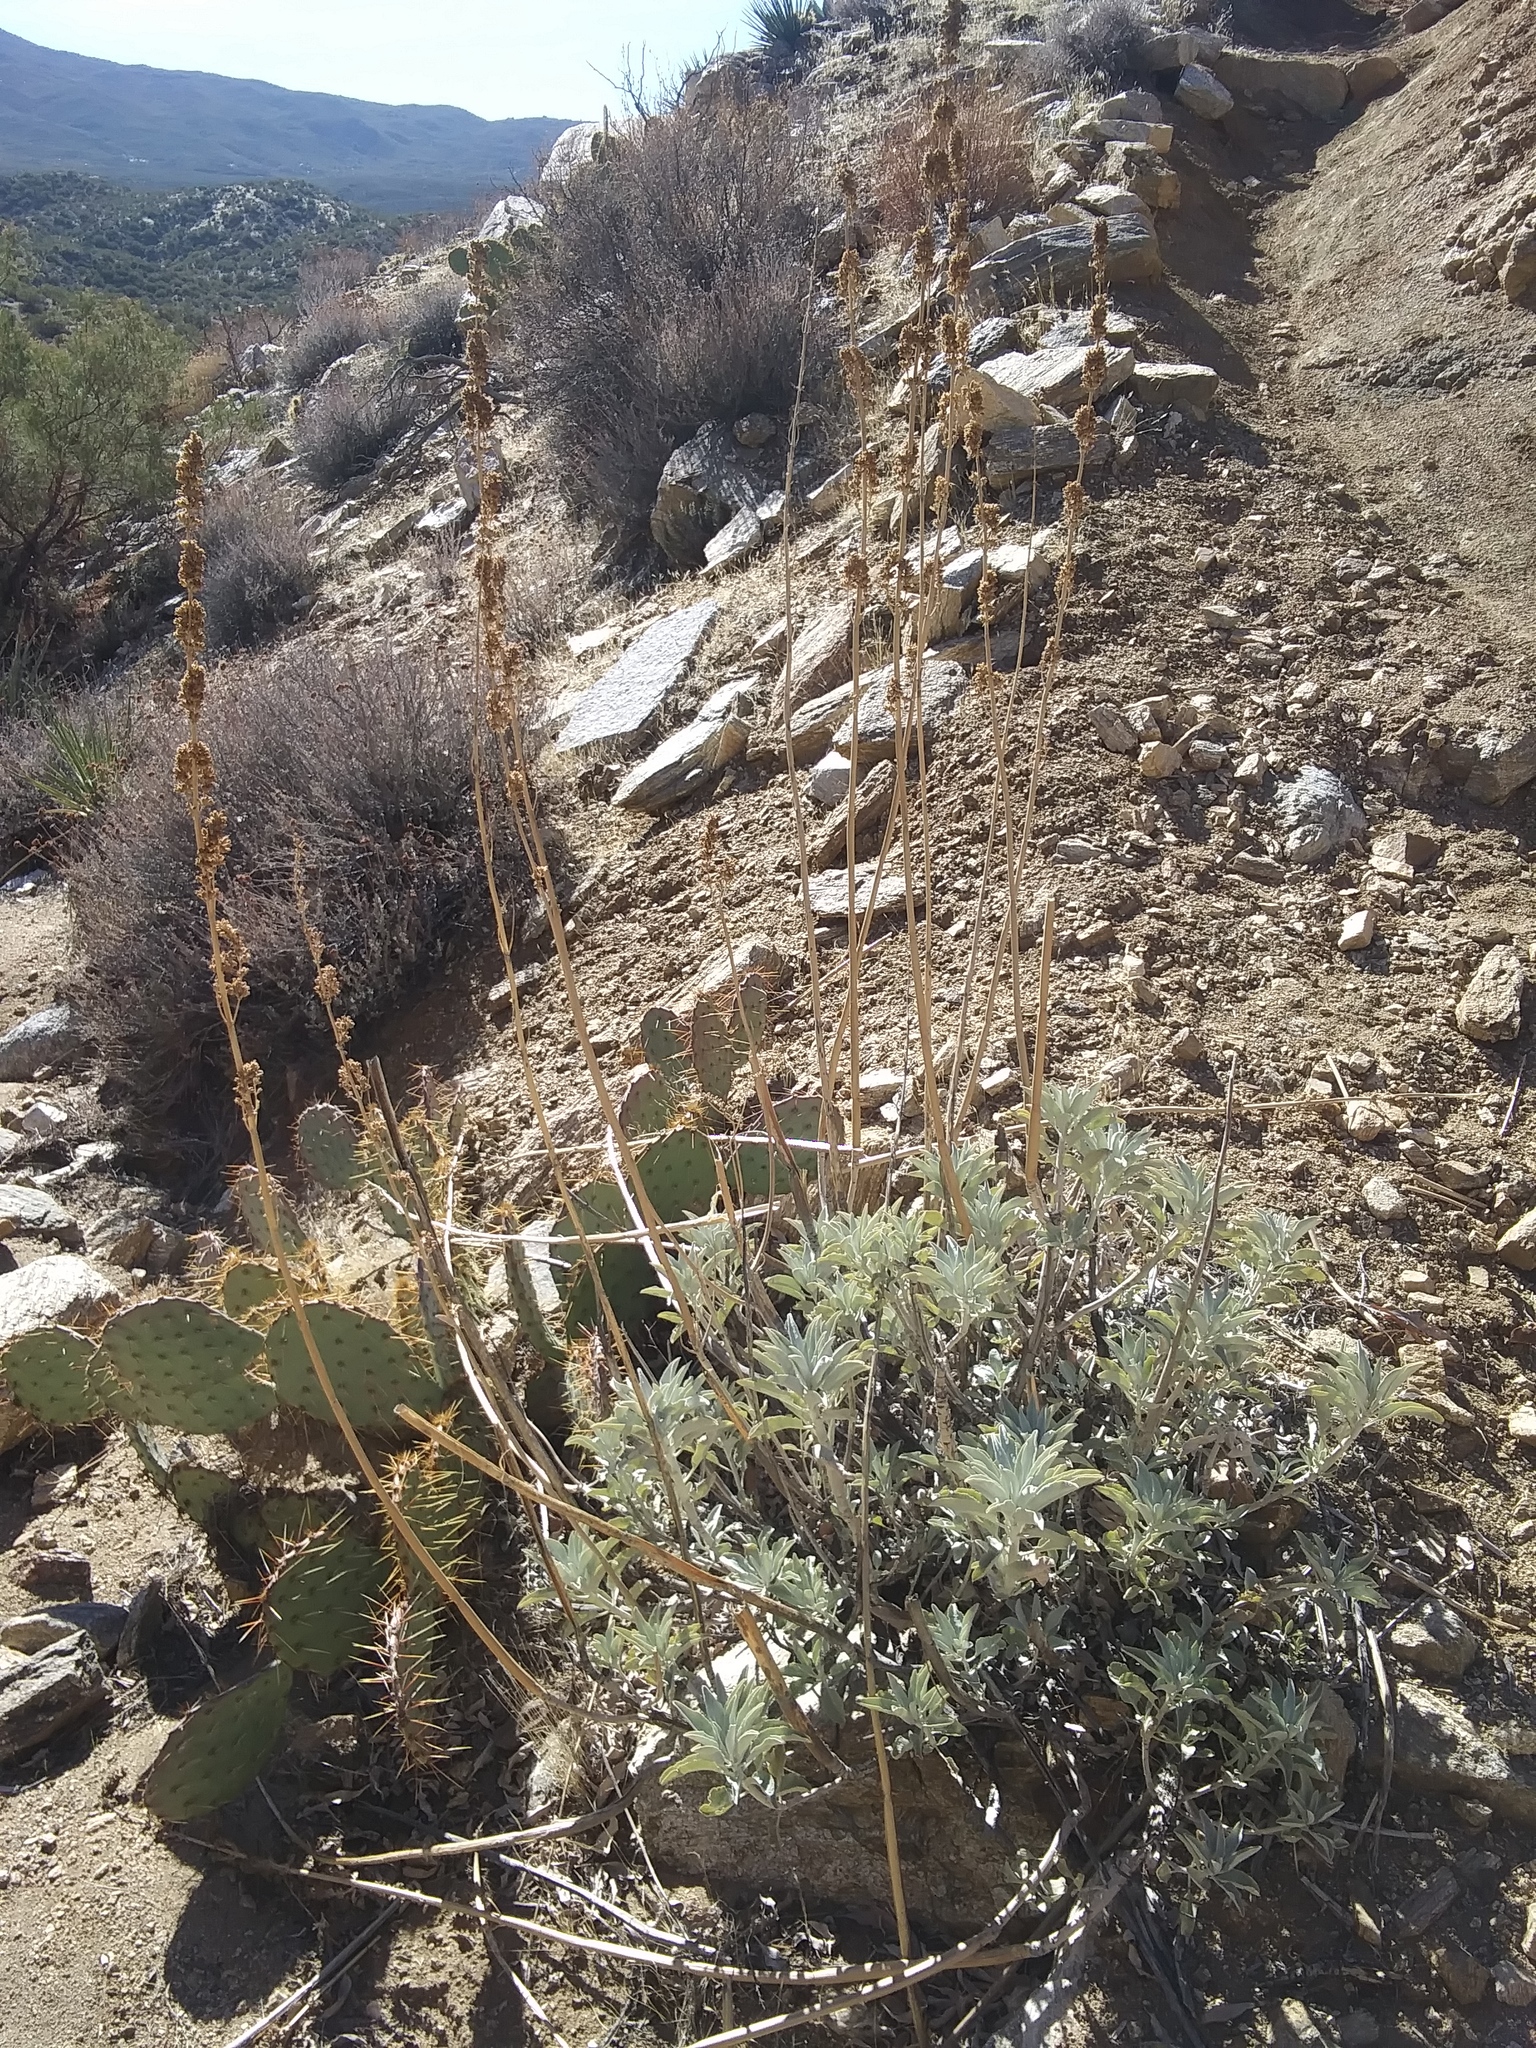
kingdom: Plantae
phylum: Tracheophyta
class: Magnoliopsida
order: Lamiales
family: Lamiaceae
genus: Salvia
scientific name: Salvia apiana
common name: White sage
